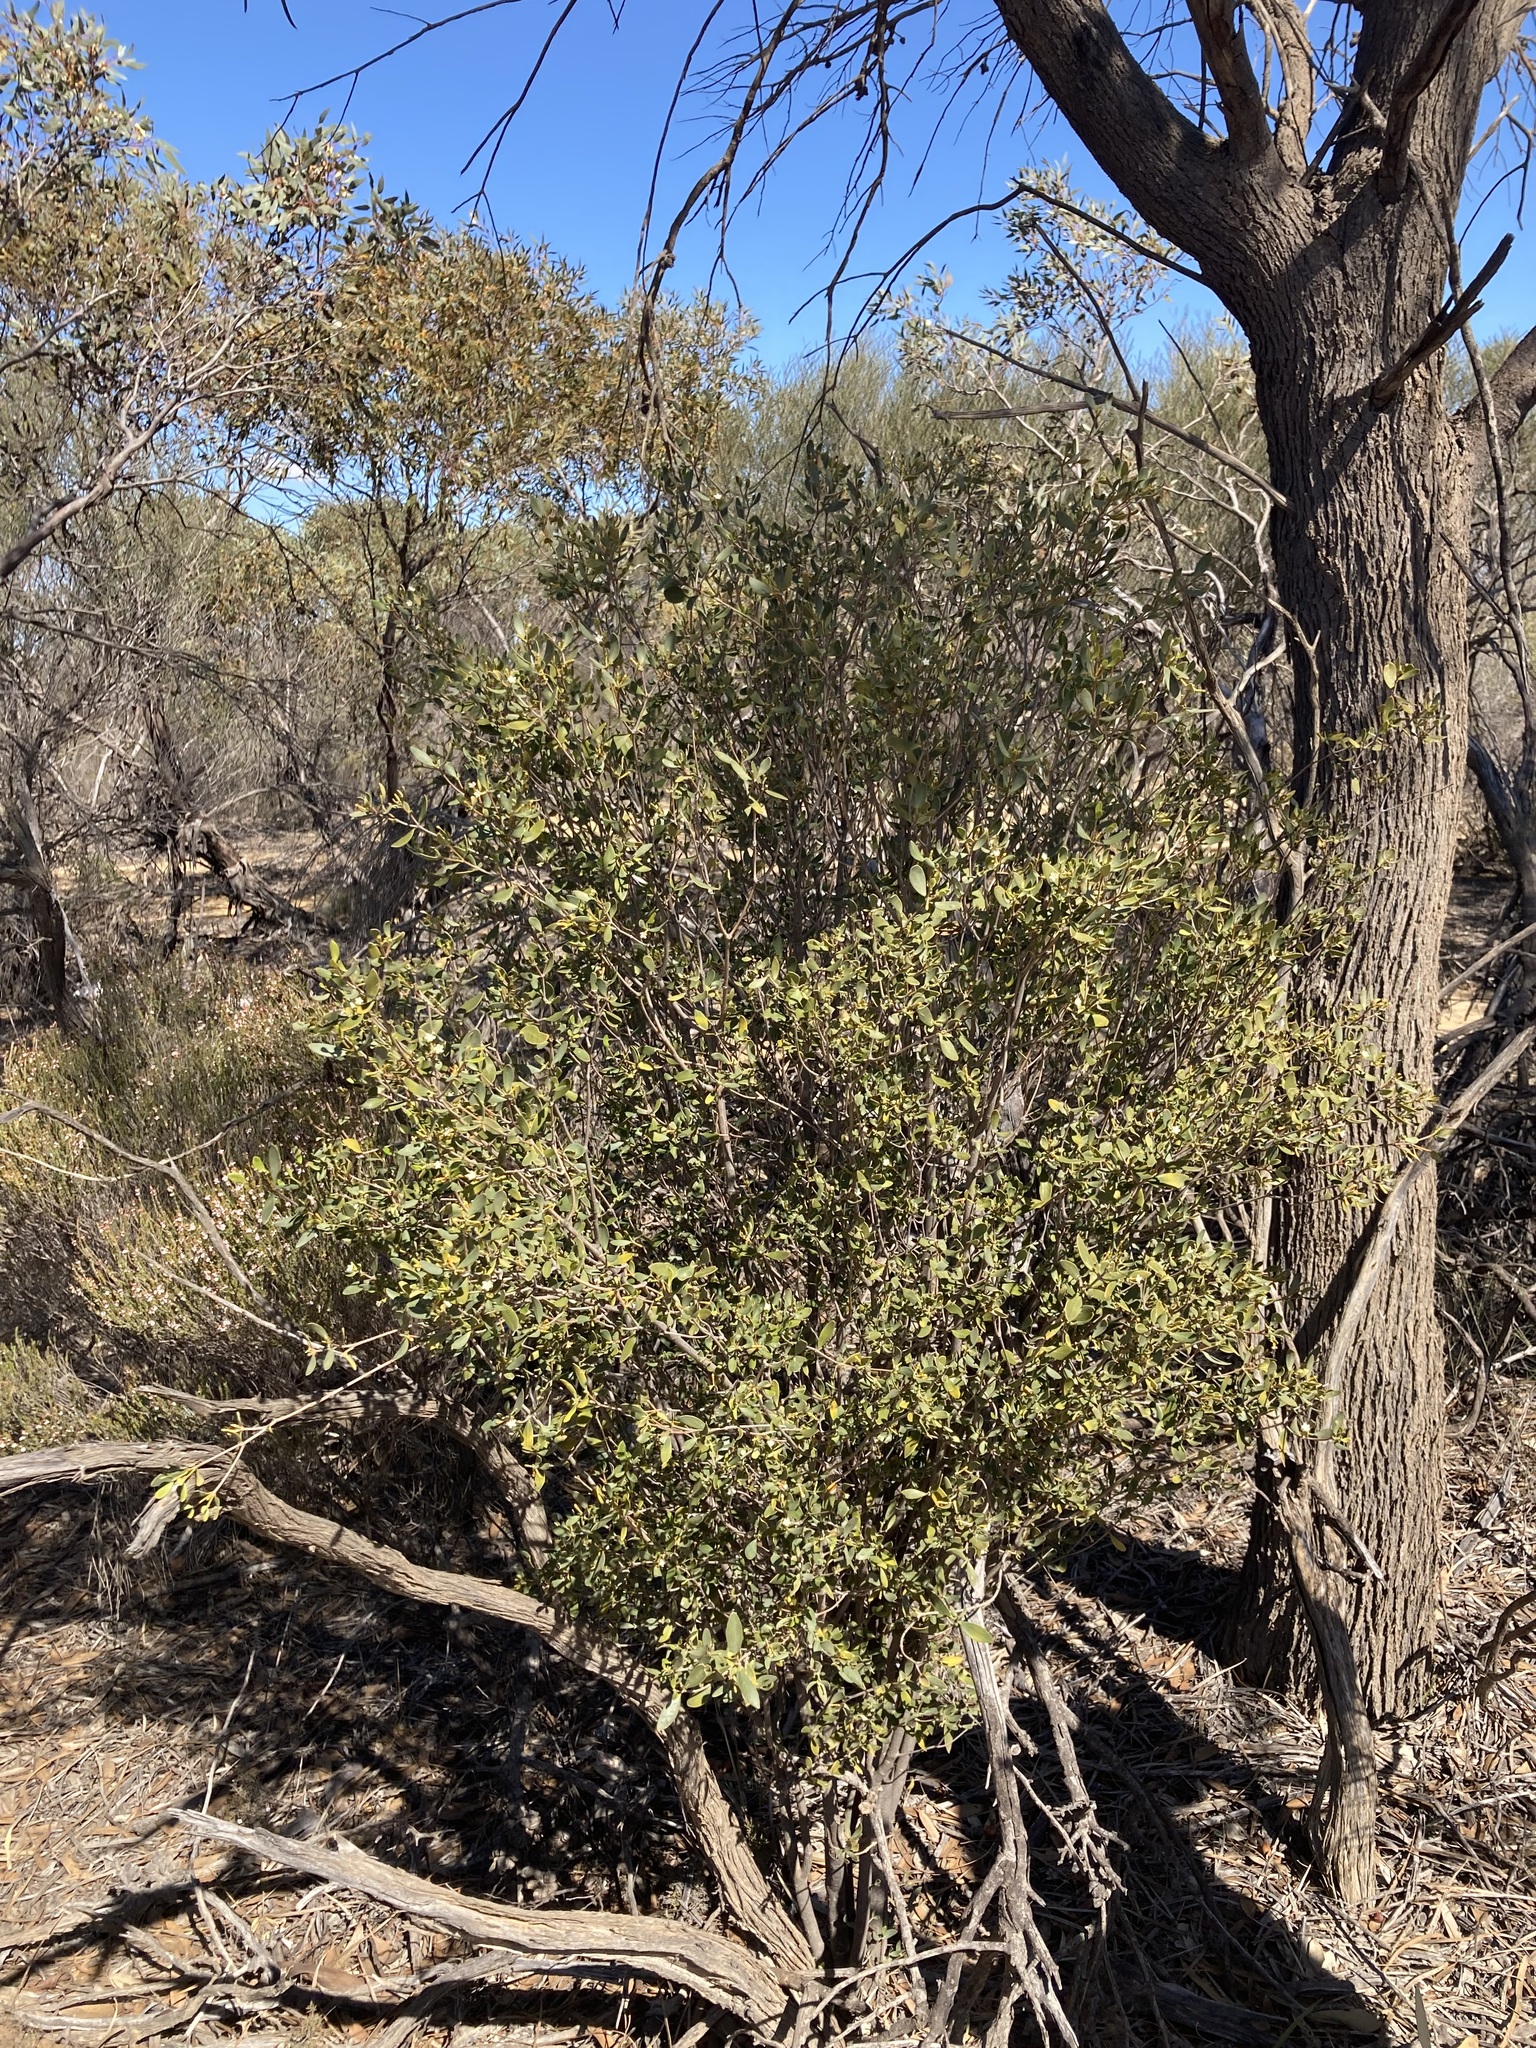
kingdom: Plantae
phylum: Tracheophyta
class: Magnoliopsida
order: Gentianales
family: Apocynaceae
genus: Alyxia
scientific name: Alyxia buxifolia
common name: Dysentery-bush
